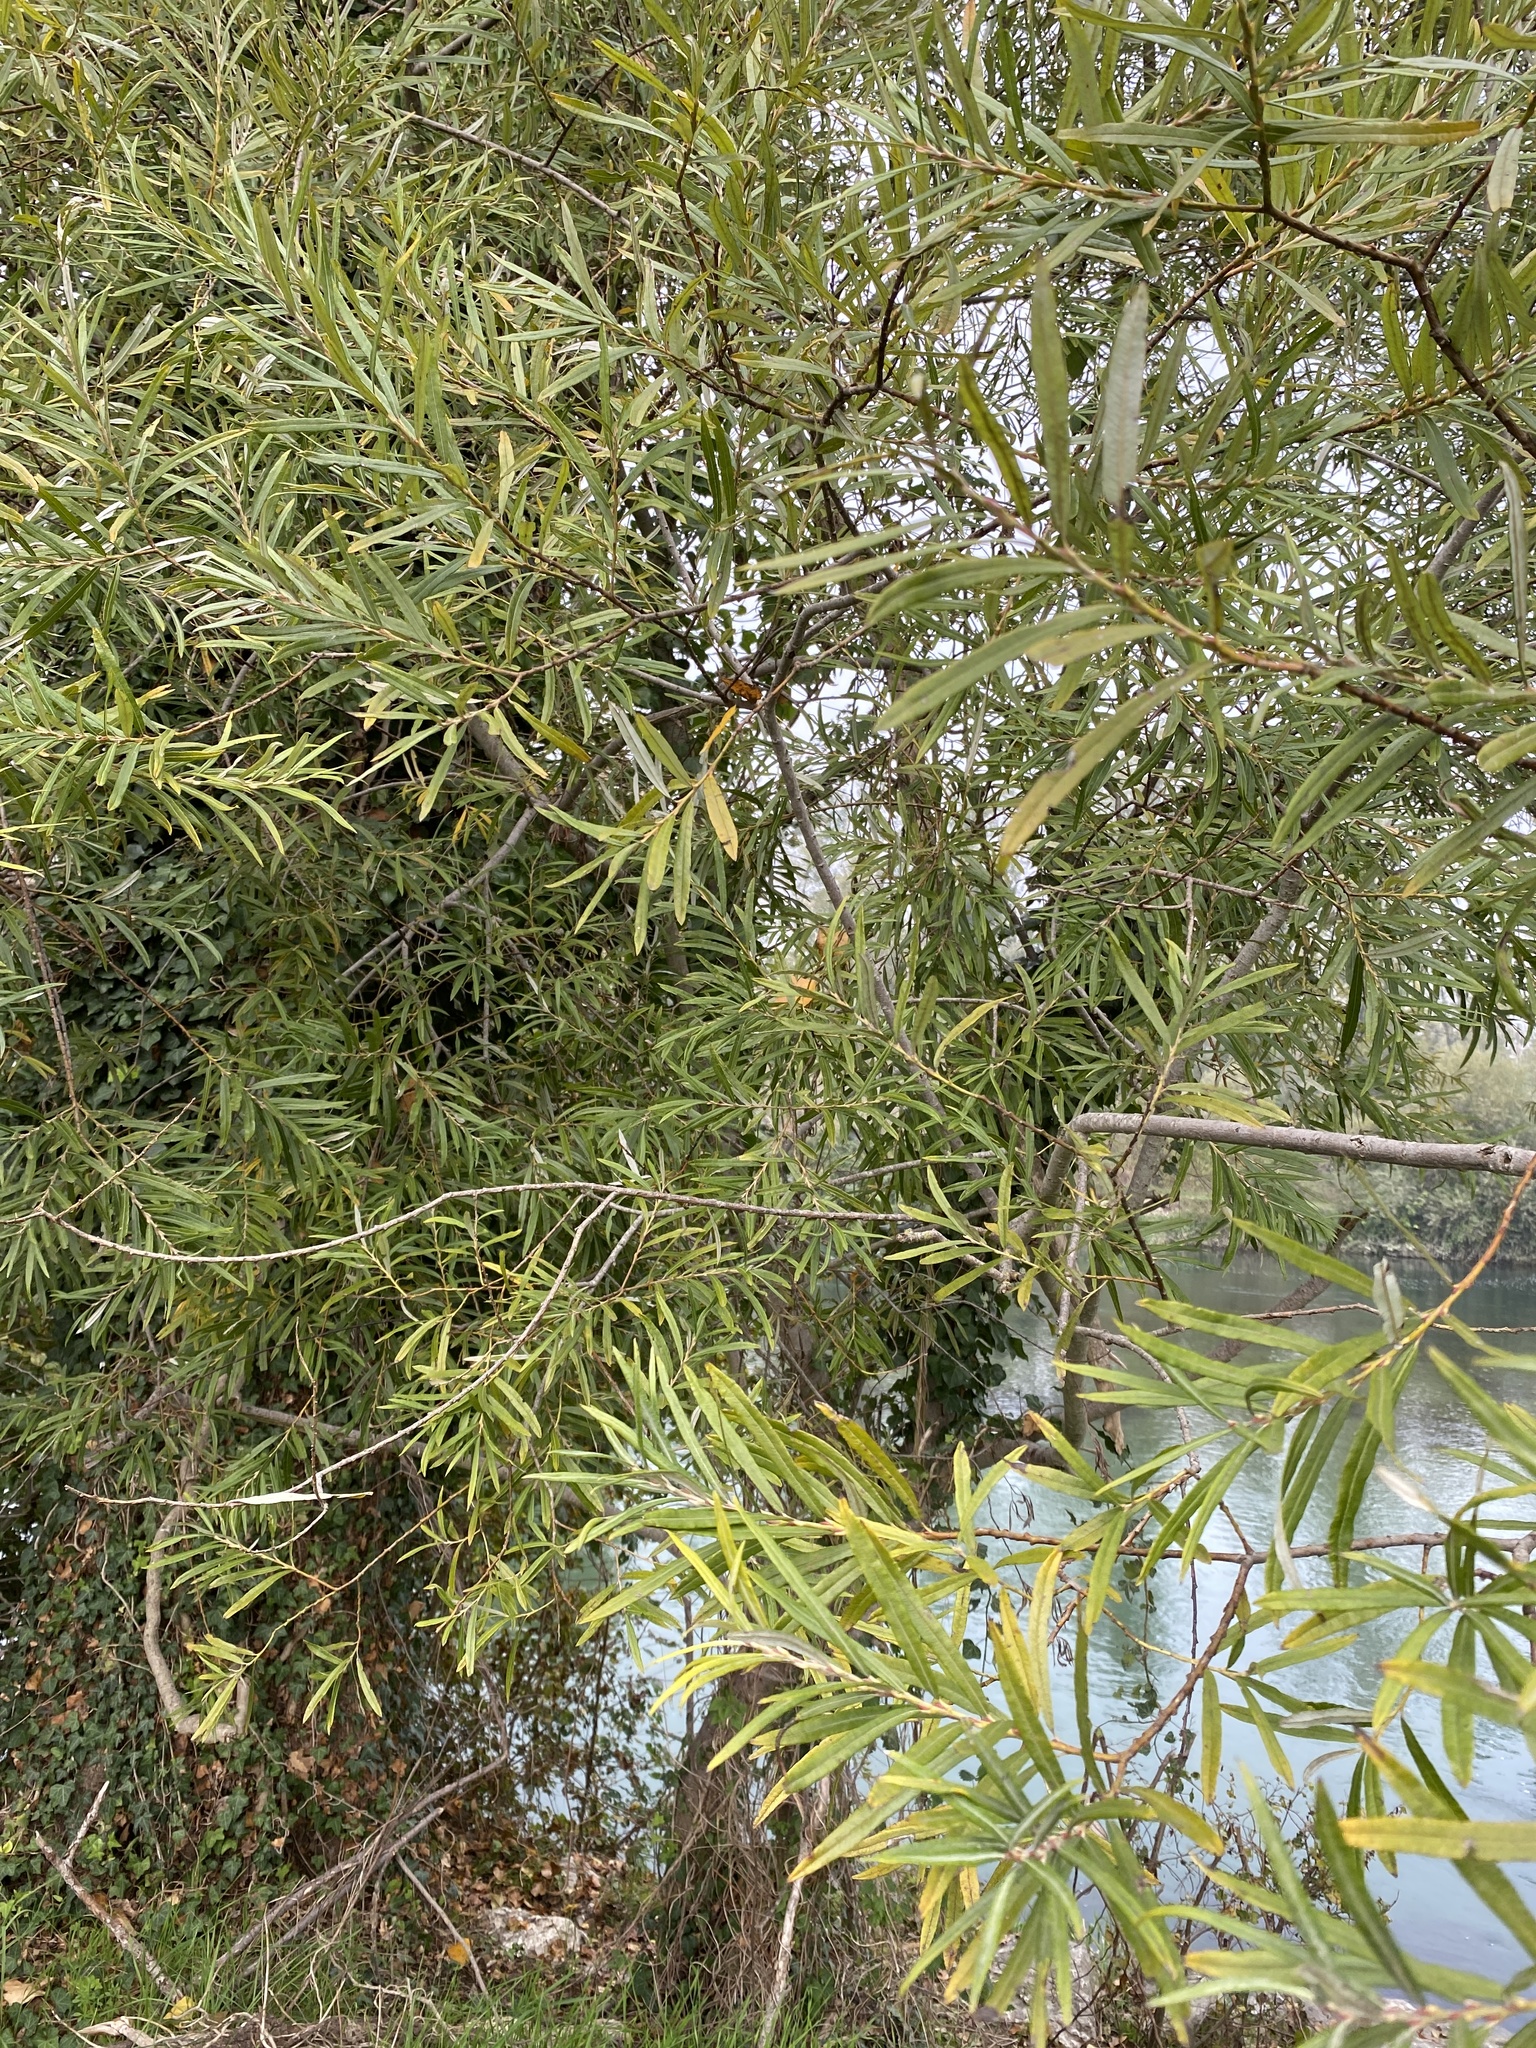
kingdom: Plantae
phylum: Tracheophyta
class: Magnoliopsida
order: Malpighiales
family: Salicaceae
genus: Salix
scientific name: Salix eleagnos
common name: Elaeagnus willow
